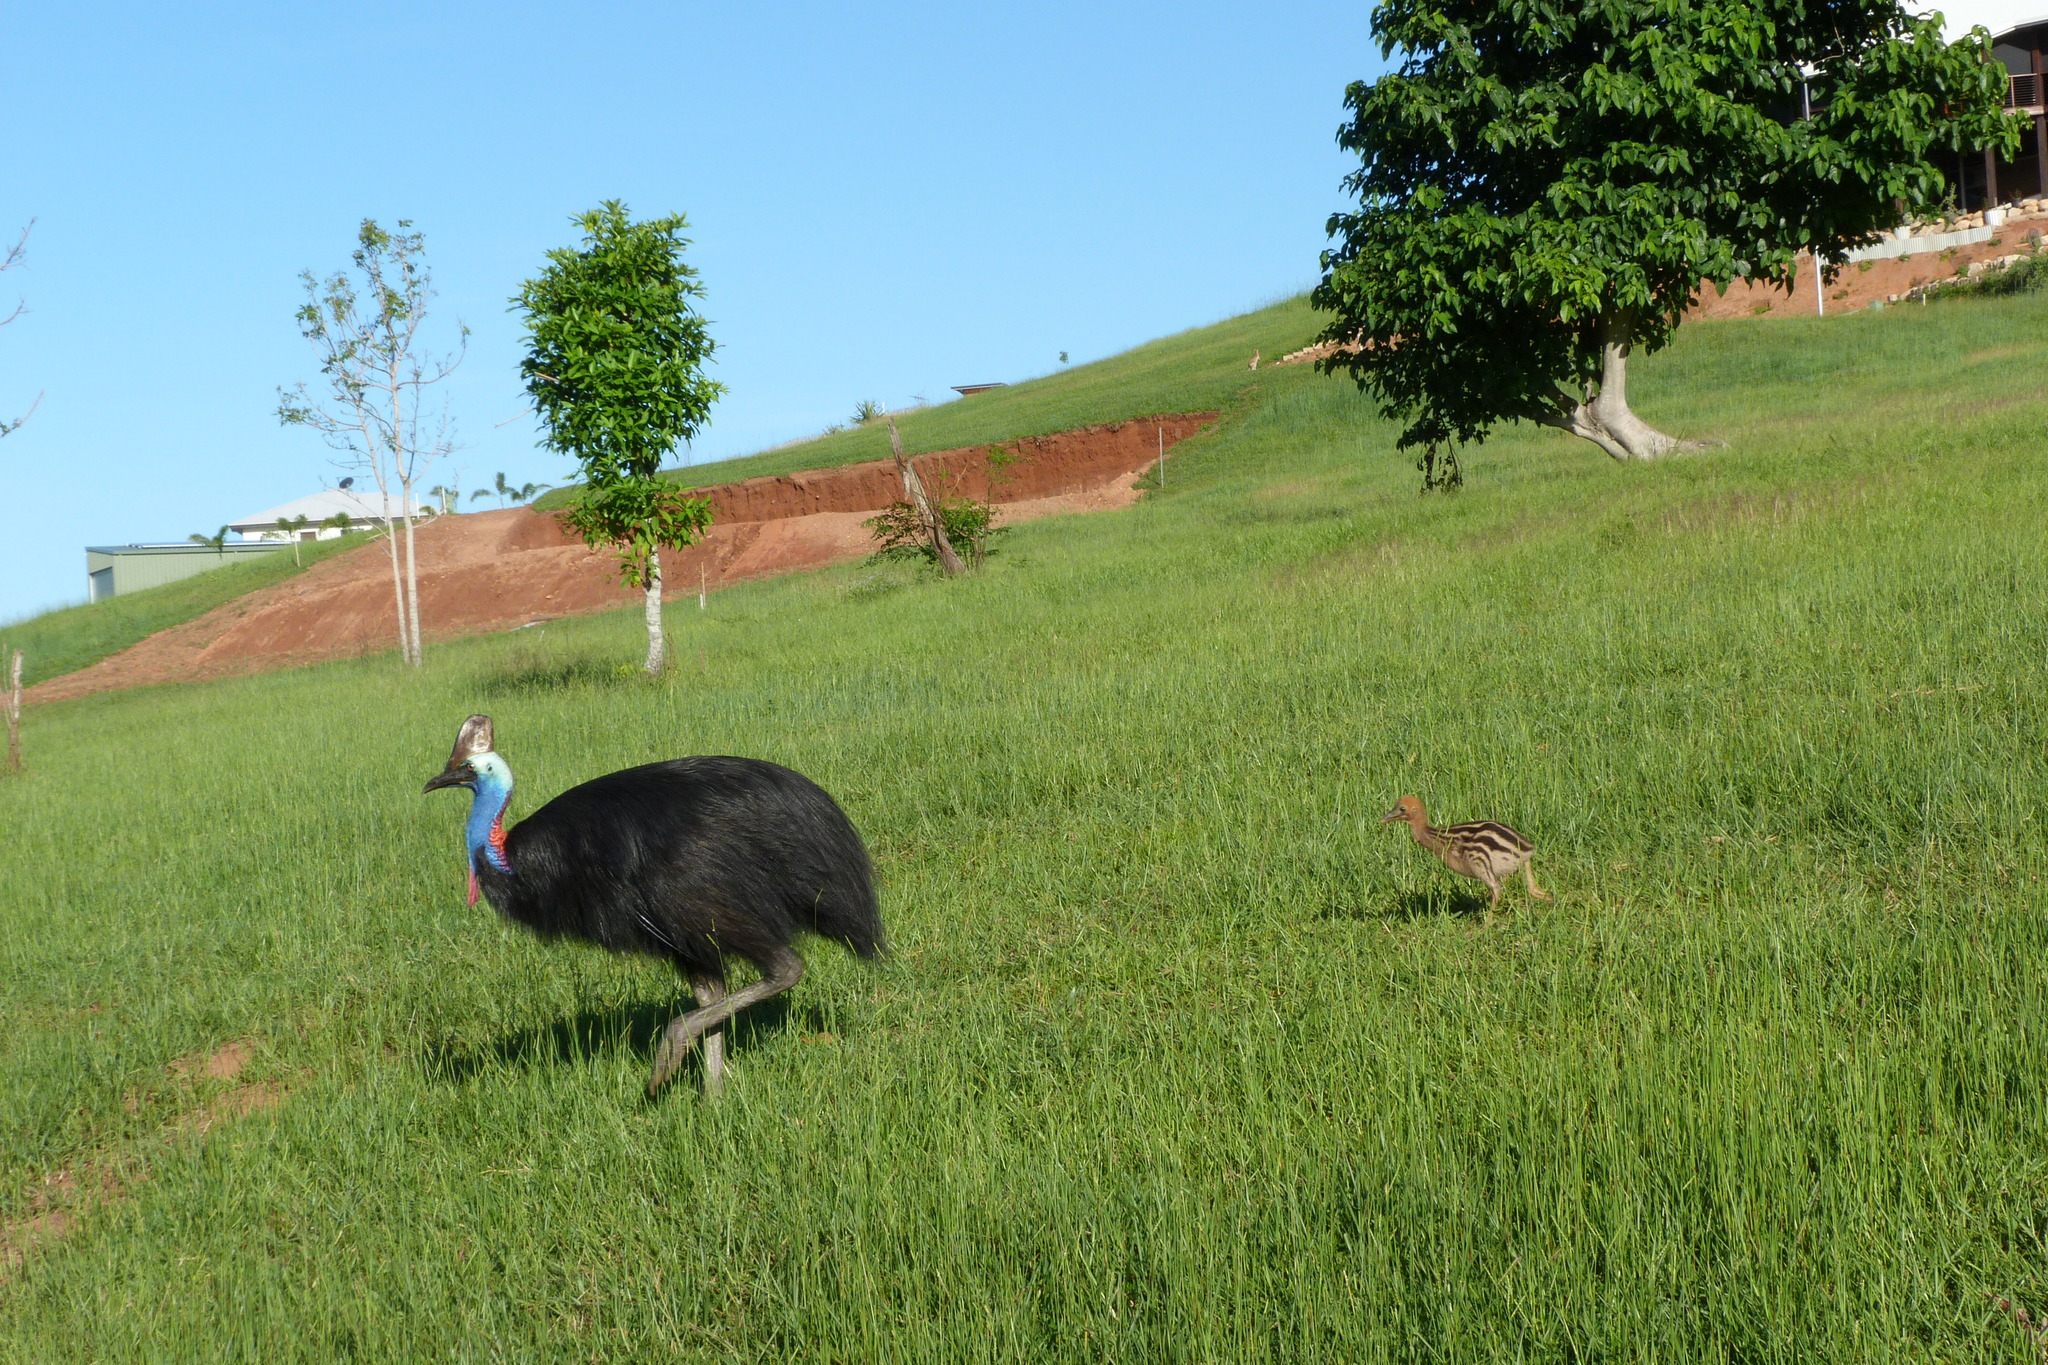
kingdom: Animalia
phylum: Chordata
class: Aves
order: Casuariiformes
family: Casuariidae
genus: Casuarius
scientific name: Casuarius casuarius
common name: Southern cassowary
